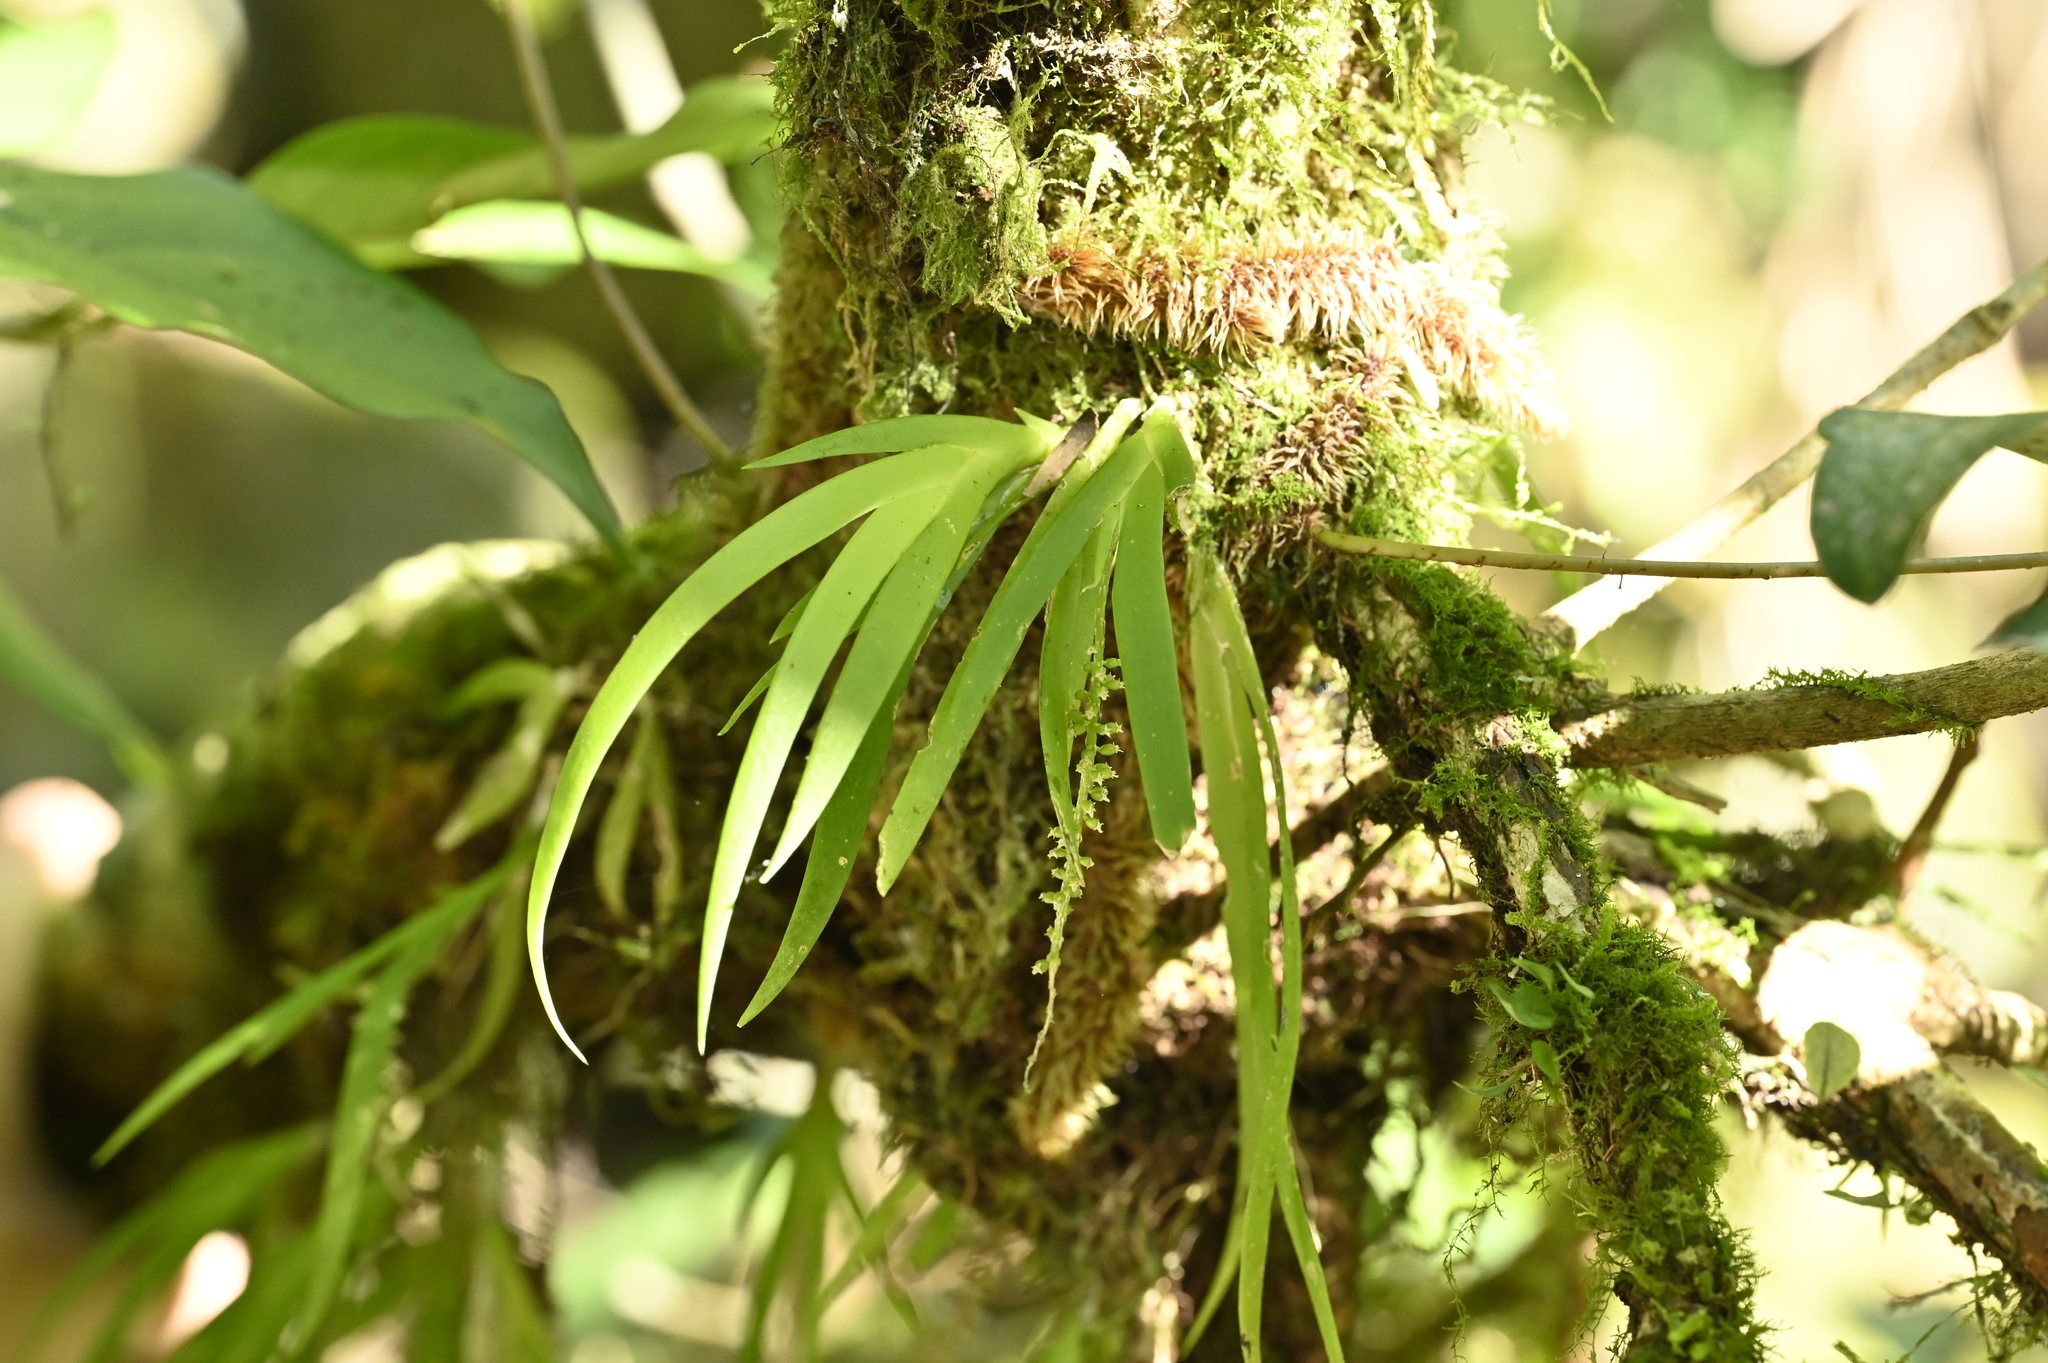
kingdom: Plantae
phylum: Tracheophyta
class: Liliopsida
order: Asparagales
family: Orchidaceae
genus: Oberonia
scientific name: Oberonia segawae
